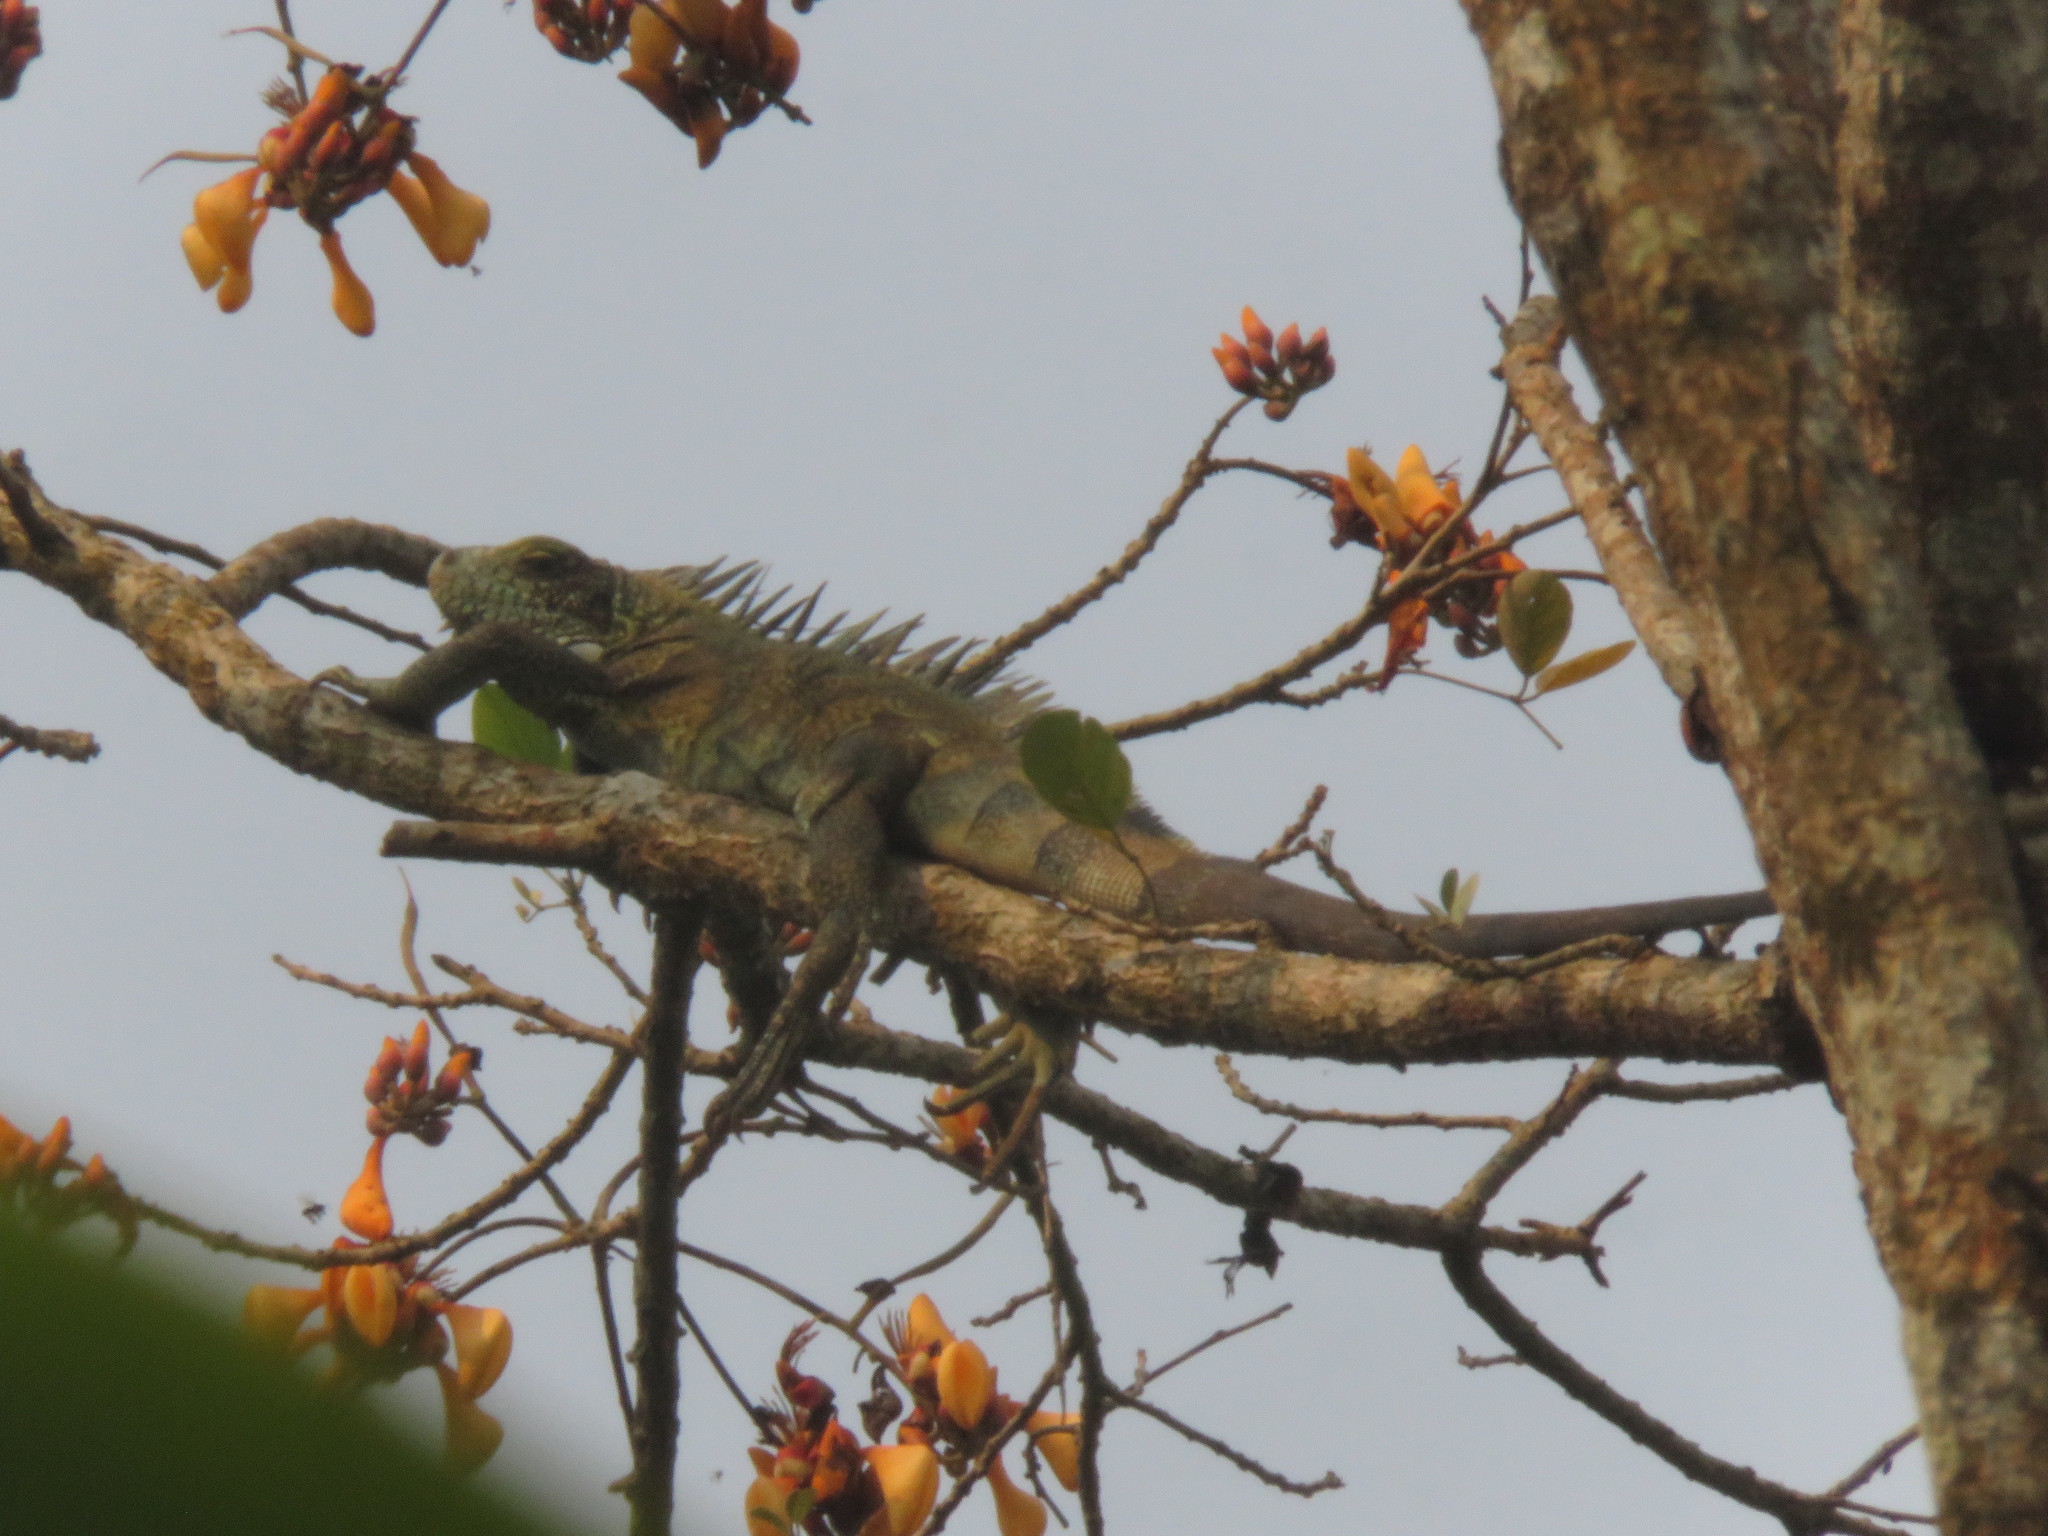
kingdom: Animalia
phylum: Chordata
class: Squamata
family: Iguanidae
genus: Iguana
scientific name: Iguana iguana
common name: Green iguana
